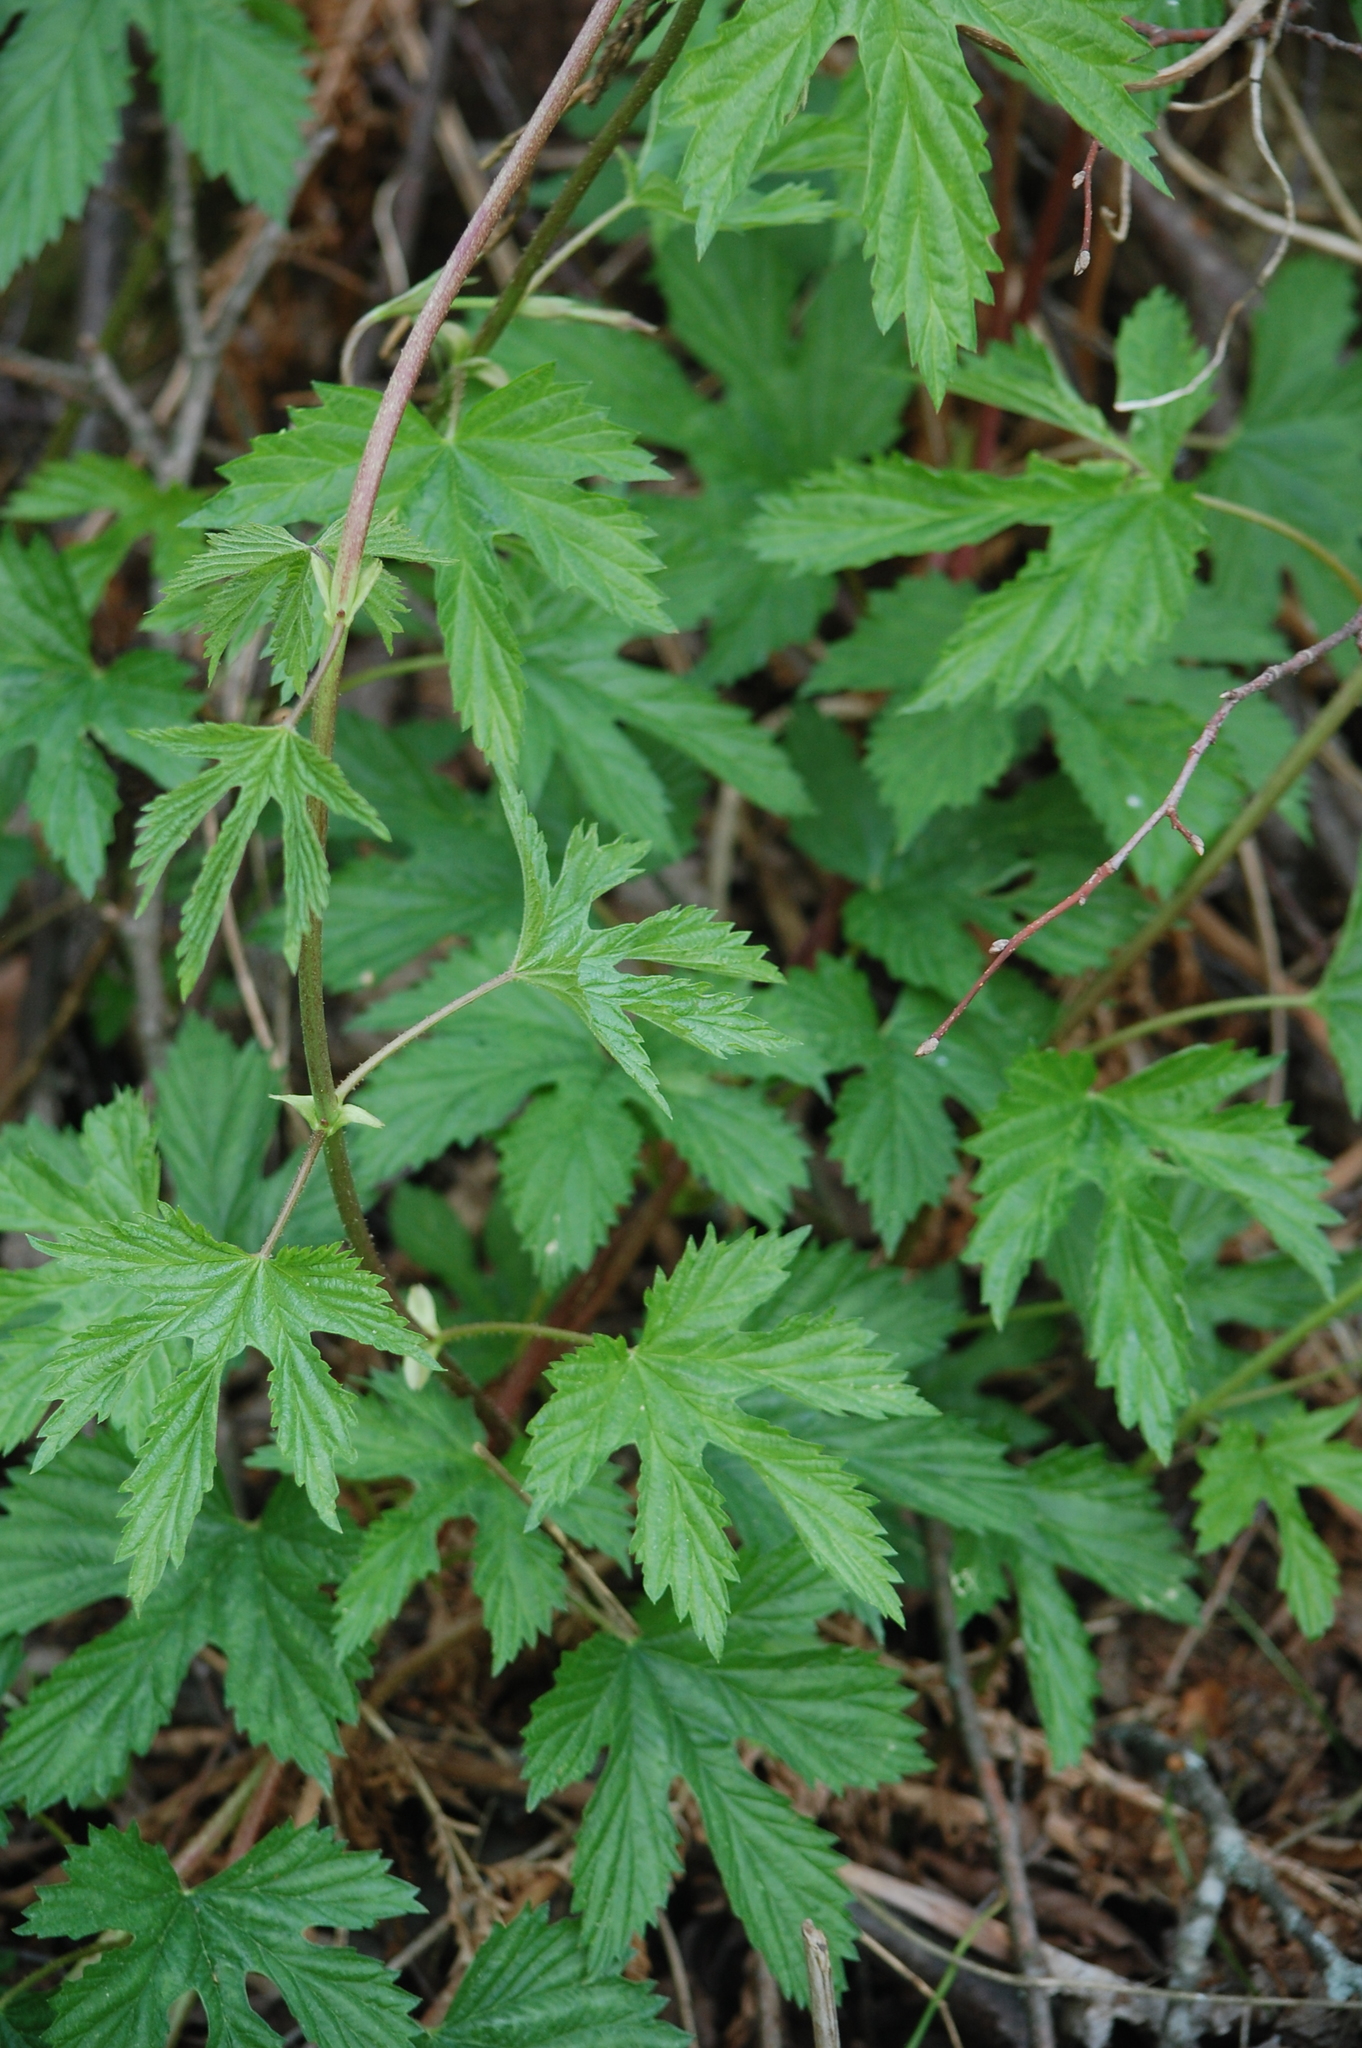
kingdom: Plantae
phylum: Tracheophyta
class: Magnoliopsida
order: Rosales
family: Cannabaceae
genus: Humulus
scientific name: Humulus lupulus
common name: Hop
